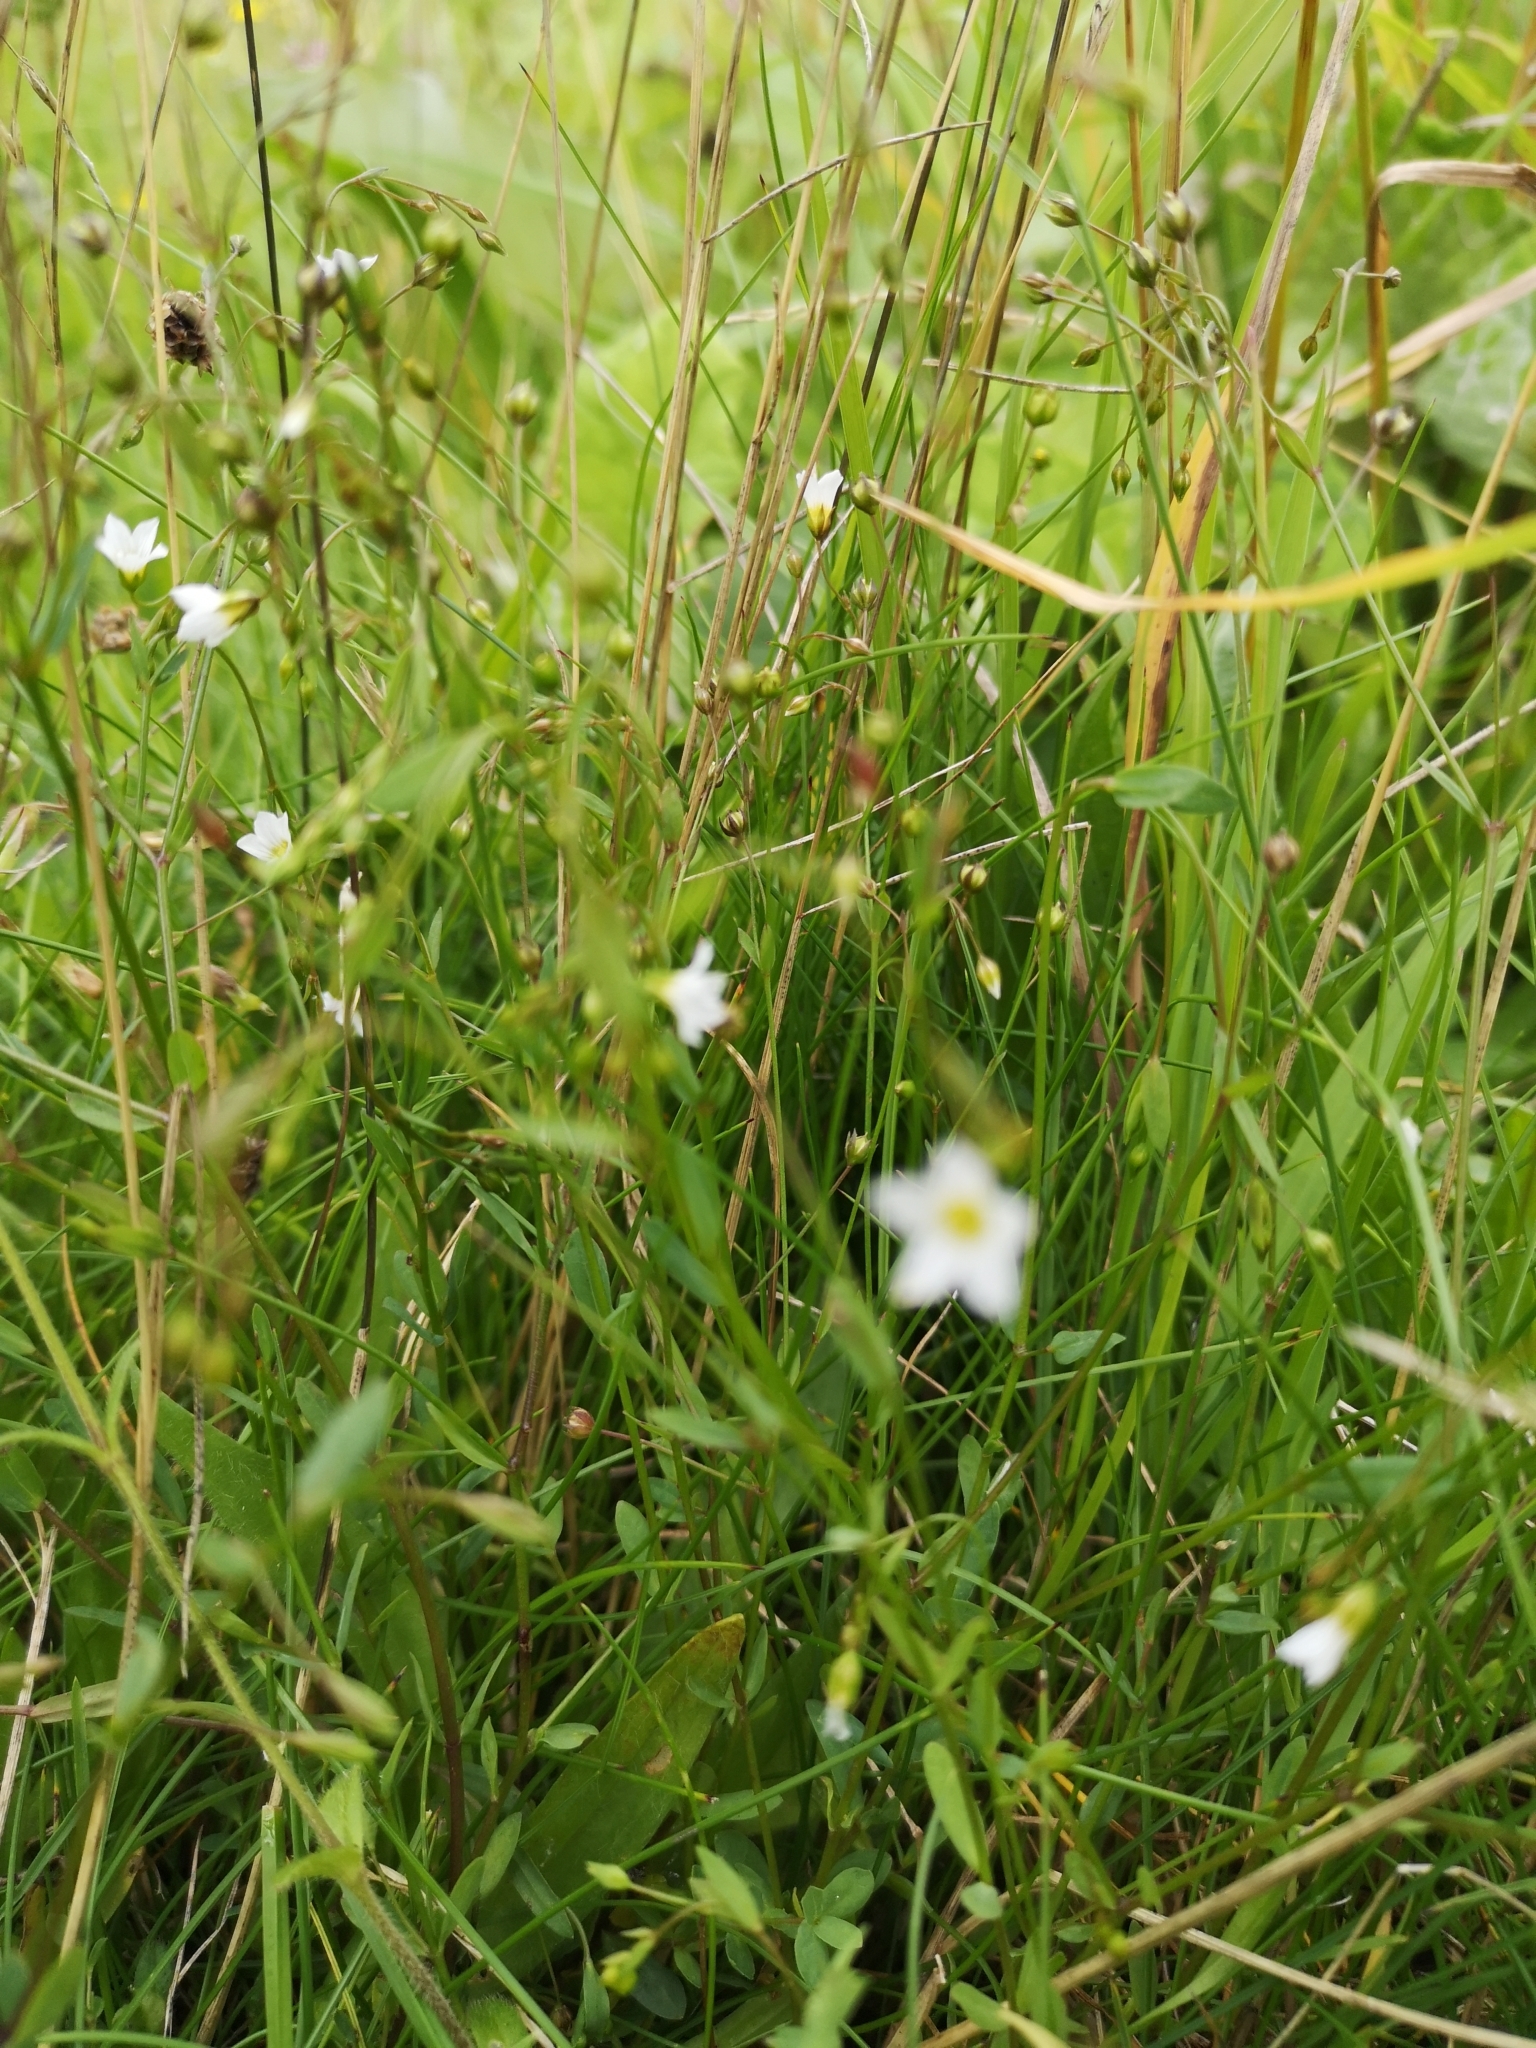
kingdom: Plantae
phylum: Tracheophyta
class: Magnoliopsida
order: Malpighiales
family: Linaceae
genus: Linum
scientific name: Linum catharticum
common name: Fairy flax
